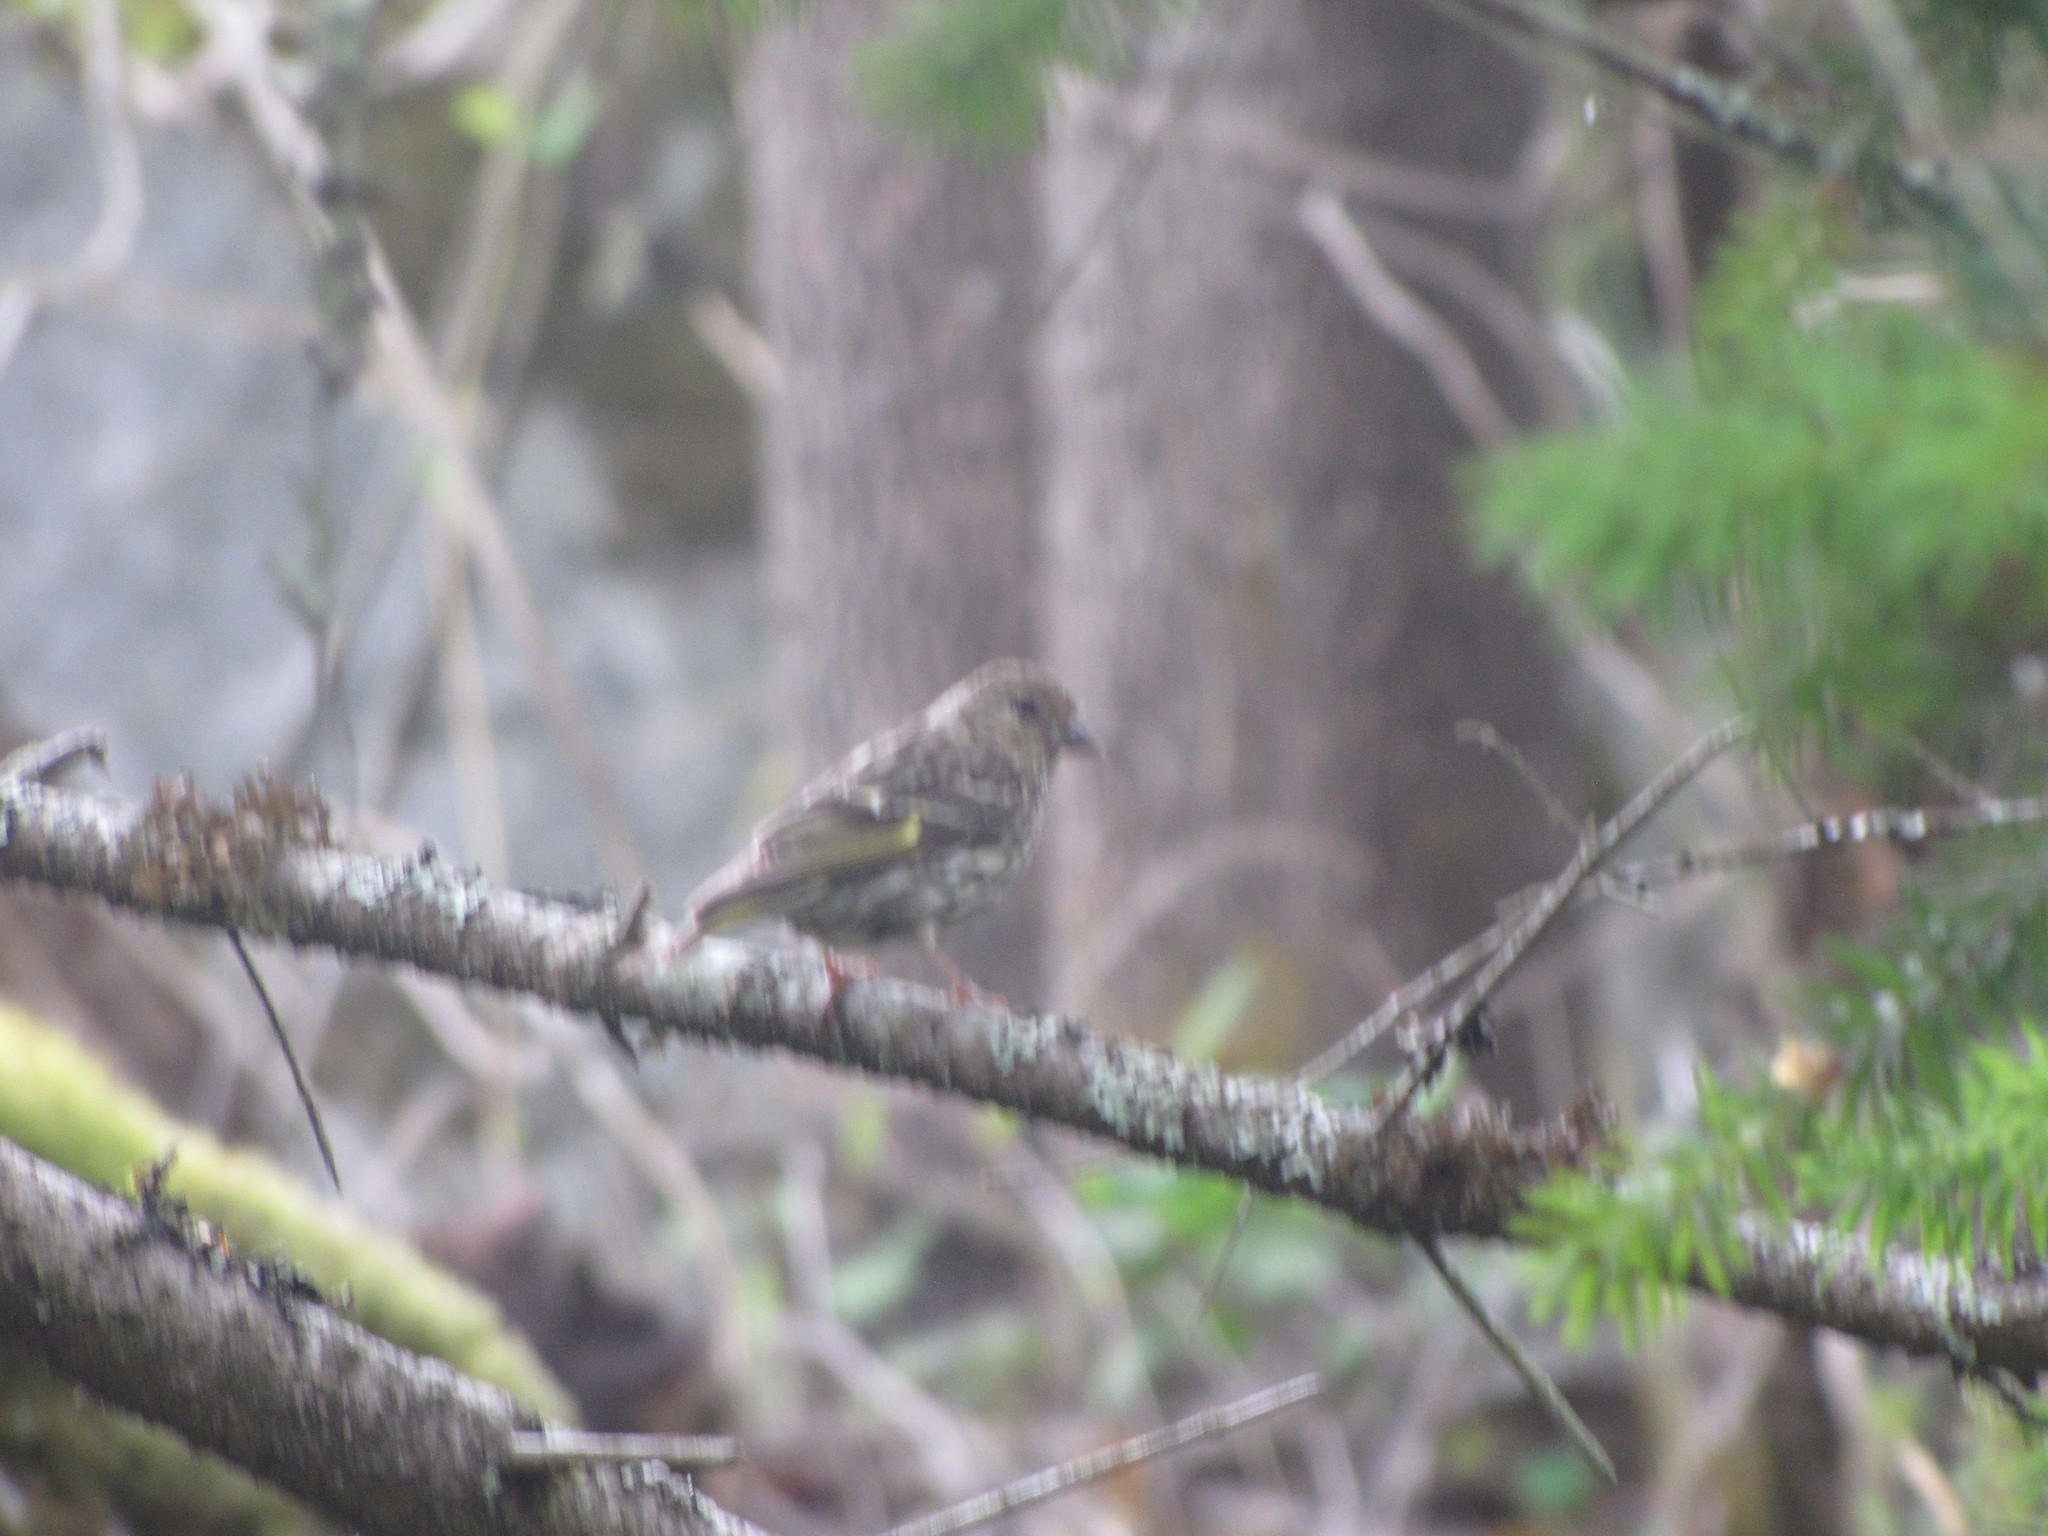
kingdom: Animalia
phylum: Chordata
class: Aves
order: Passeriformes
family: Fringillidae
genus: Spinus
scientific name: Spinus pinus
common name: Pine siskin
